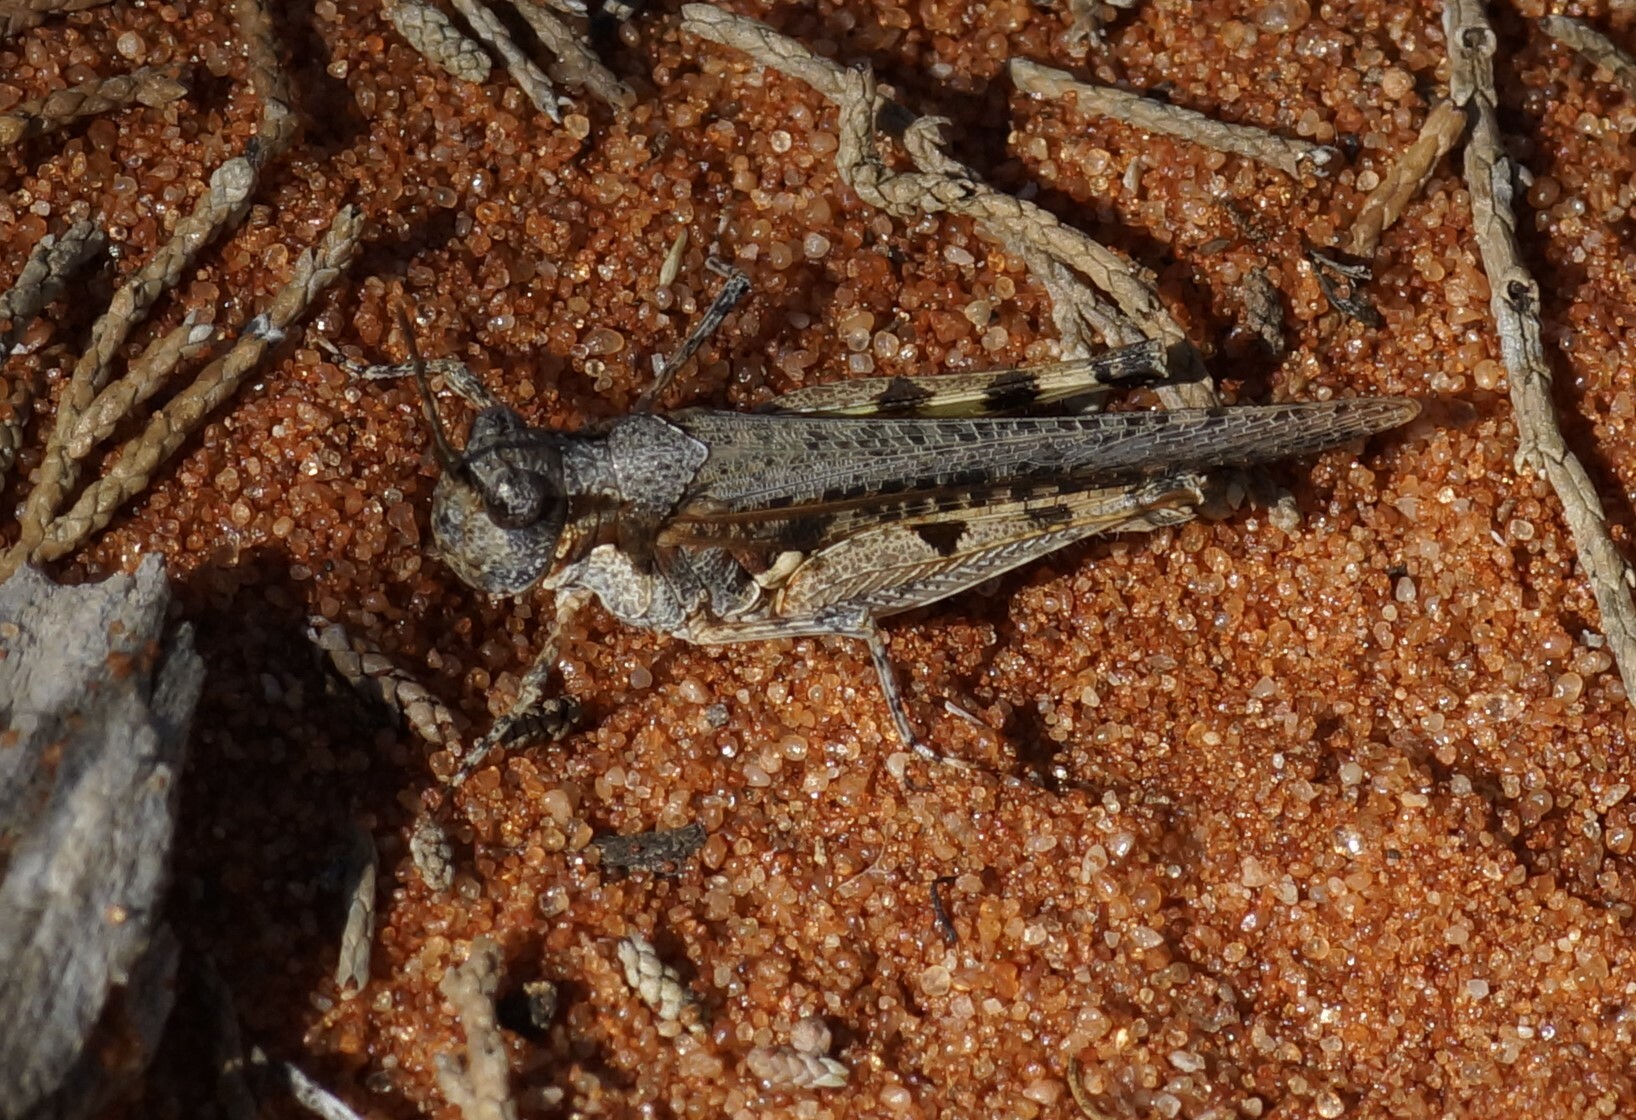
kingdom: Animalia
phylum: Arthropoda
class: Insecta
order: Orthoptera
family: Acrididae
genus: Pycnostictus
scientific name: Pycnostictus seriatus
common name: Common bandwing
